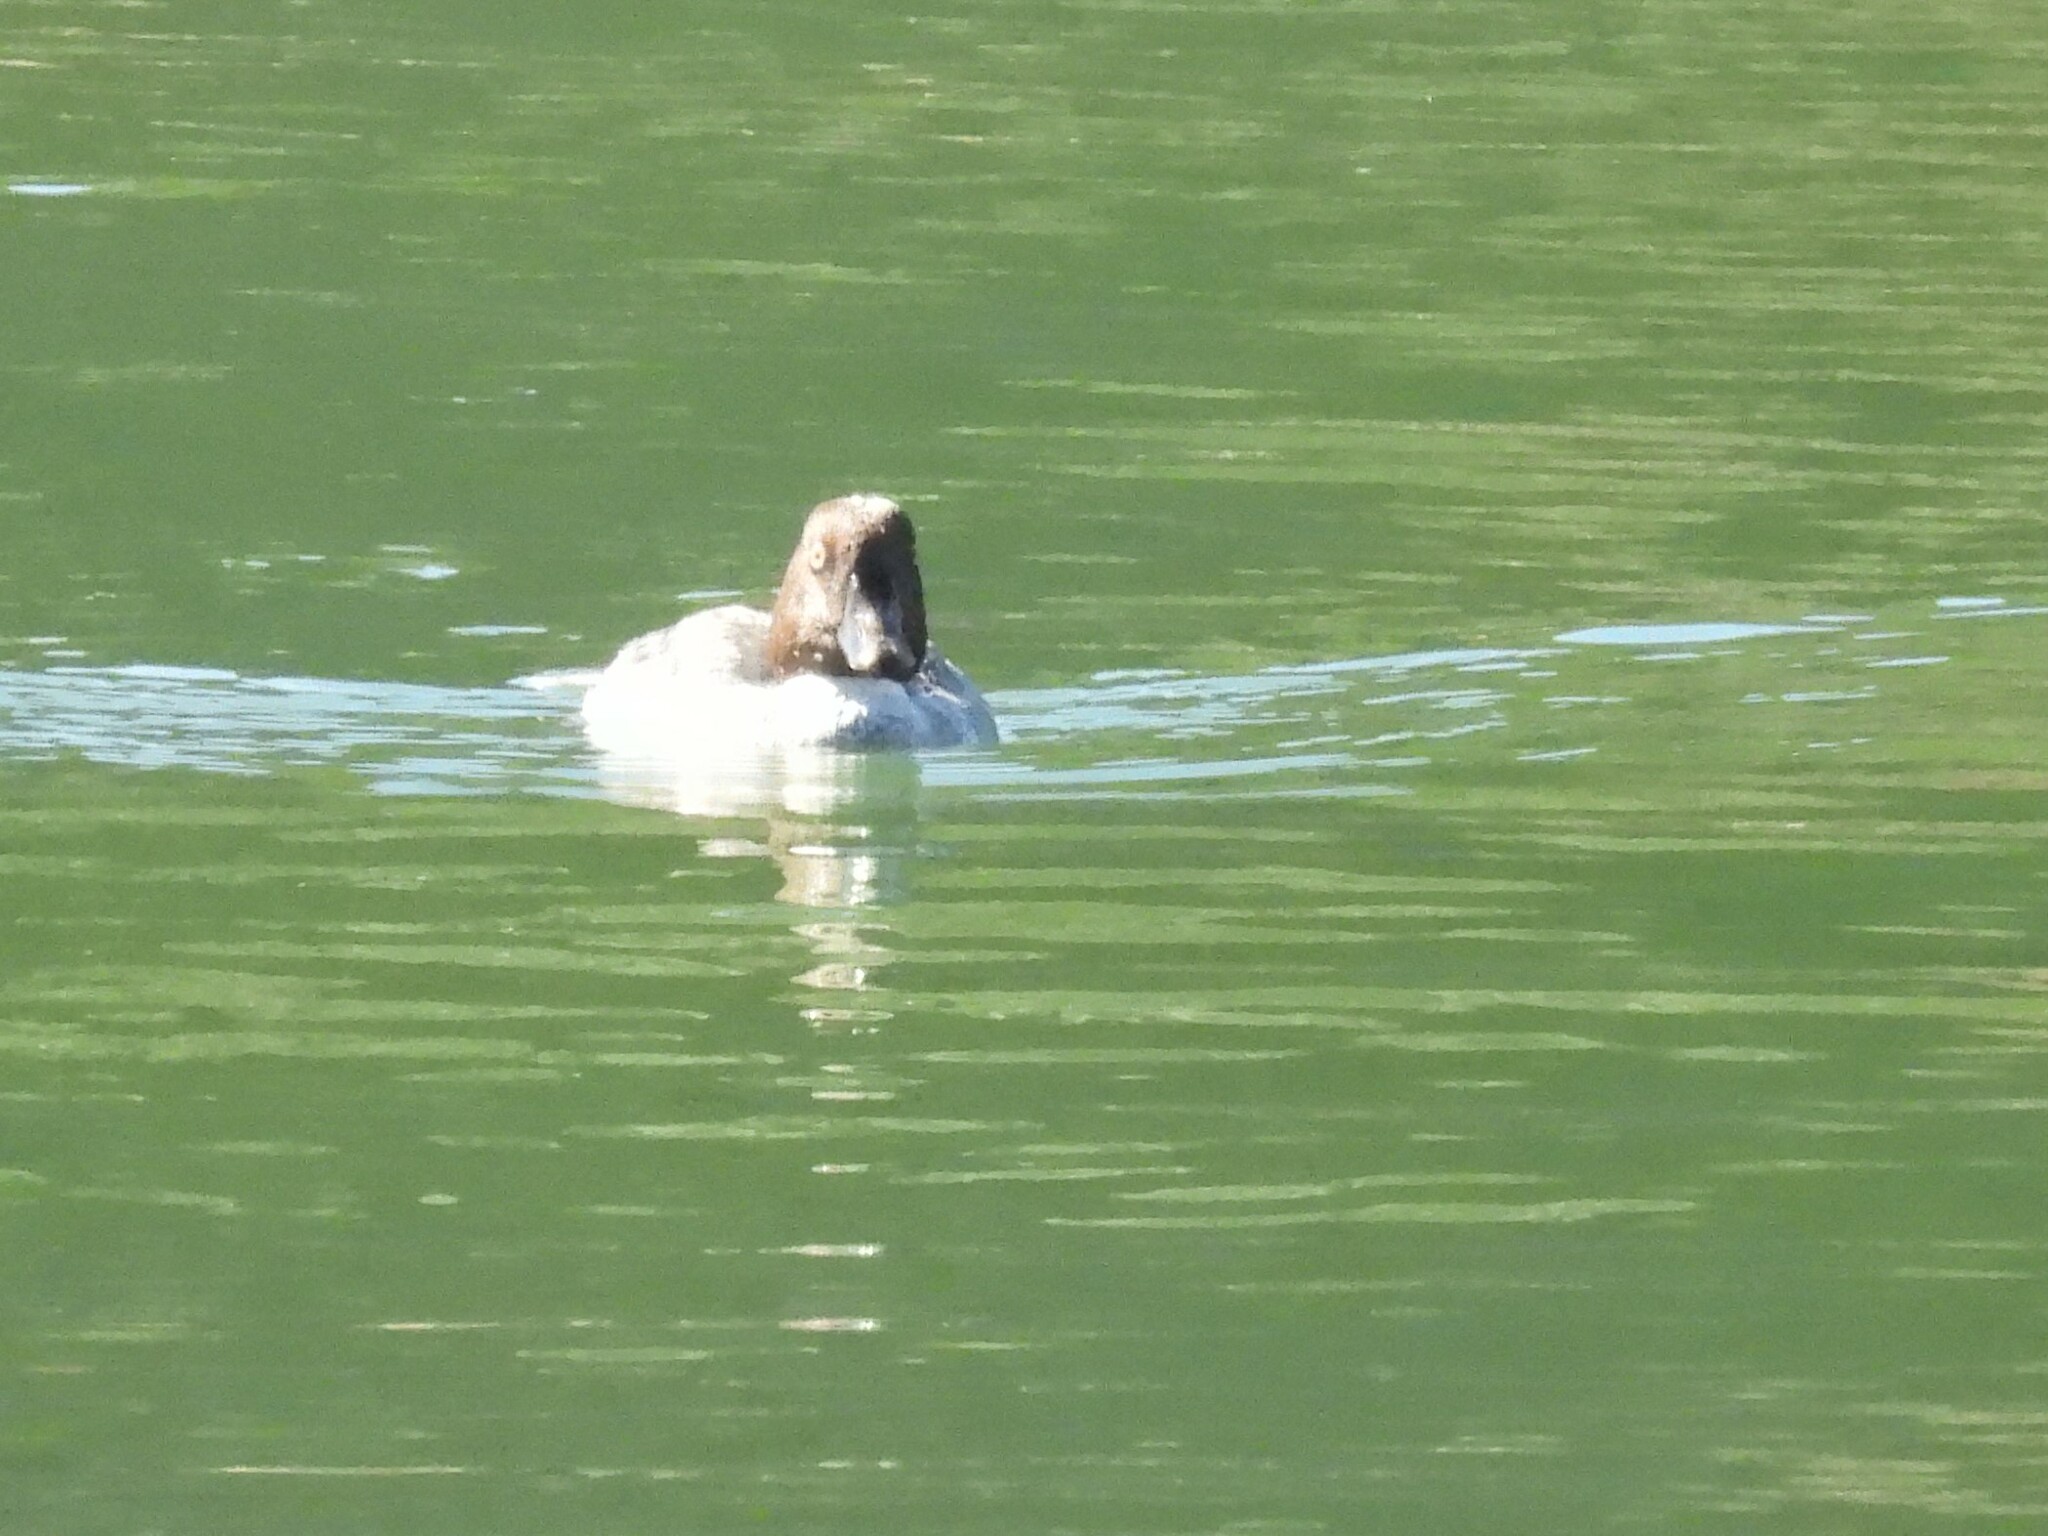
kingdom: Animalia
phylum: Chordata
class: Aves
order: Anseriformes
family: Anatidae
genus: Bucephala
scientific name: Bucephala clangula
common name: Common goldeneye
